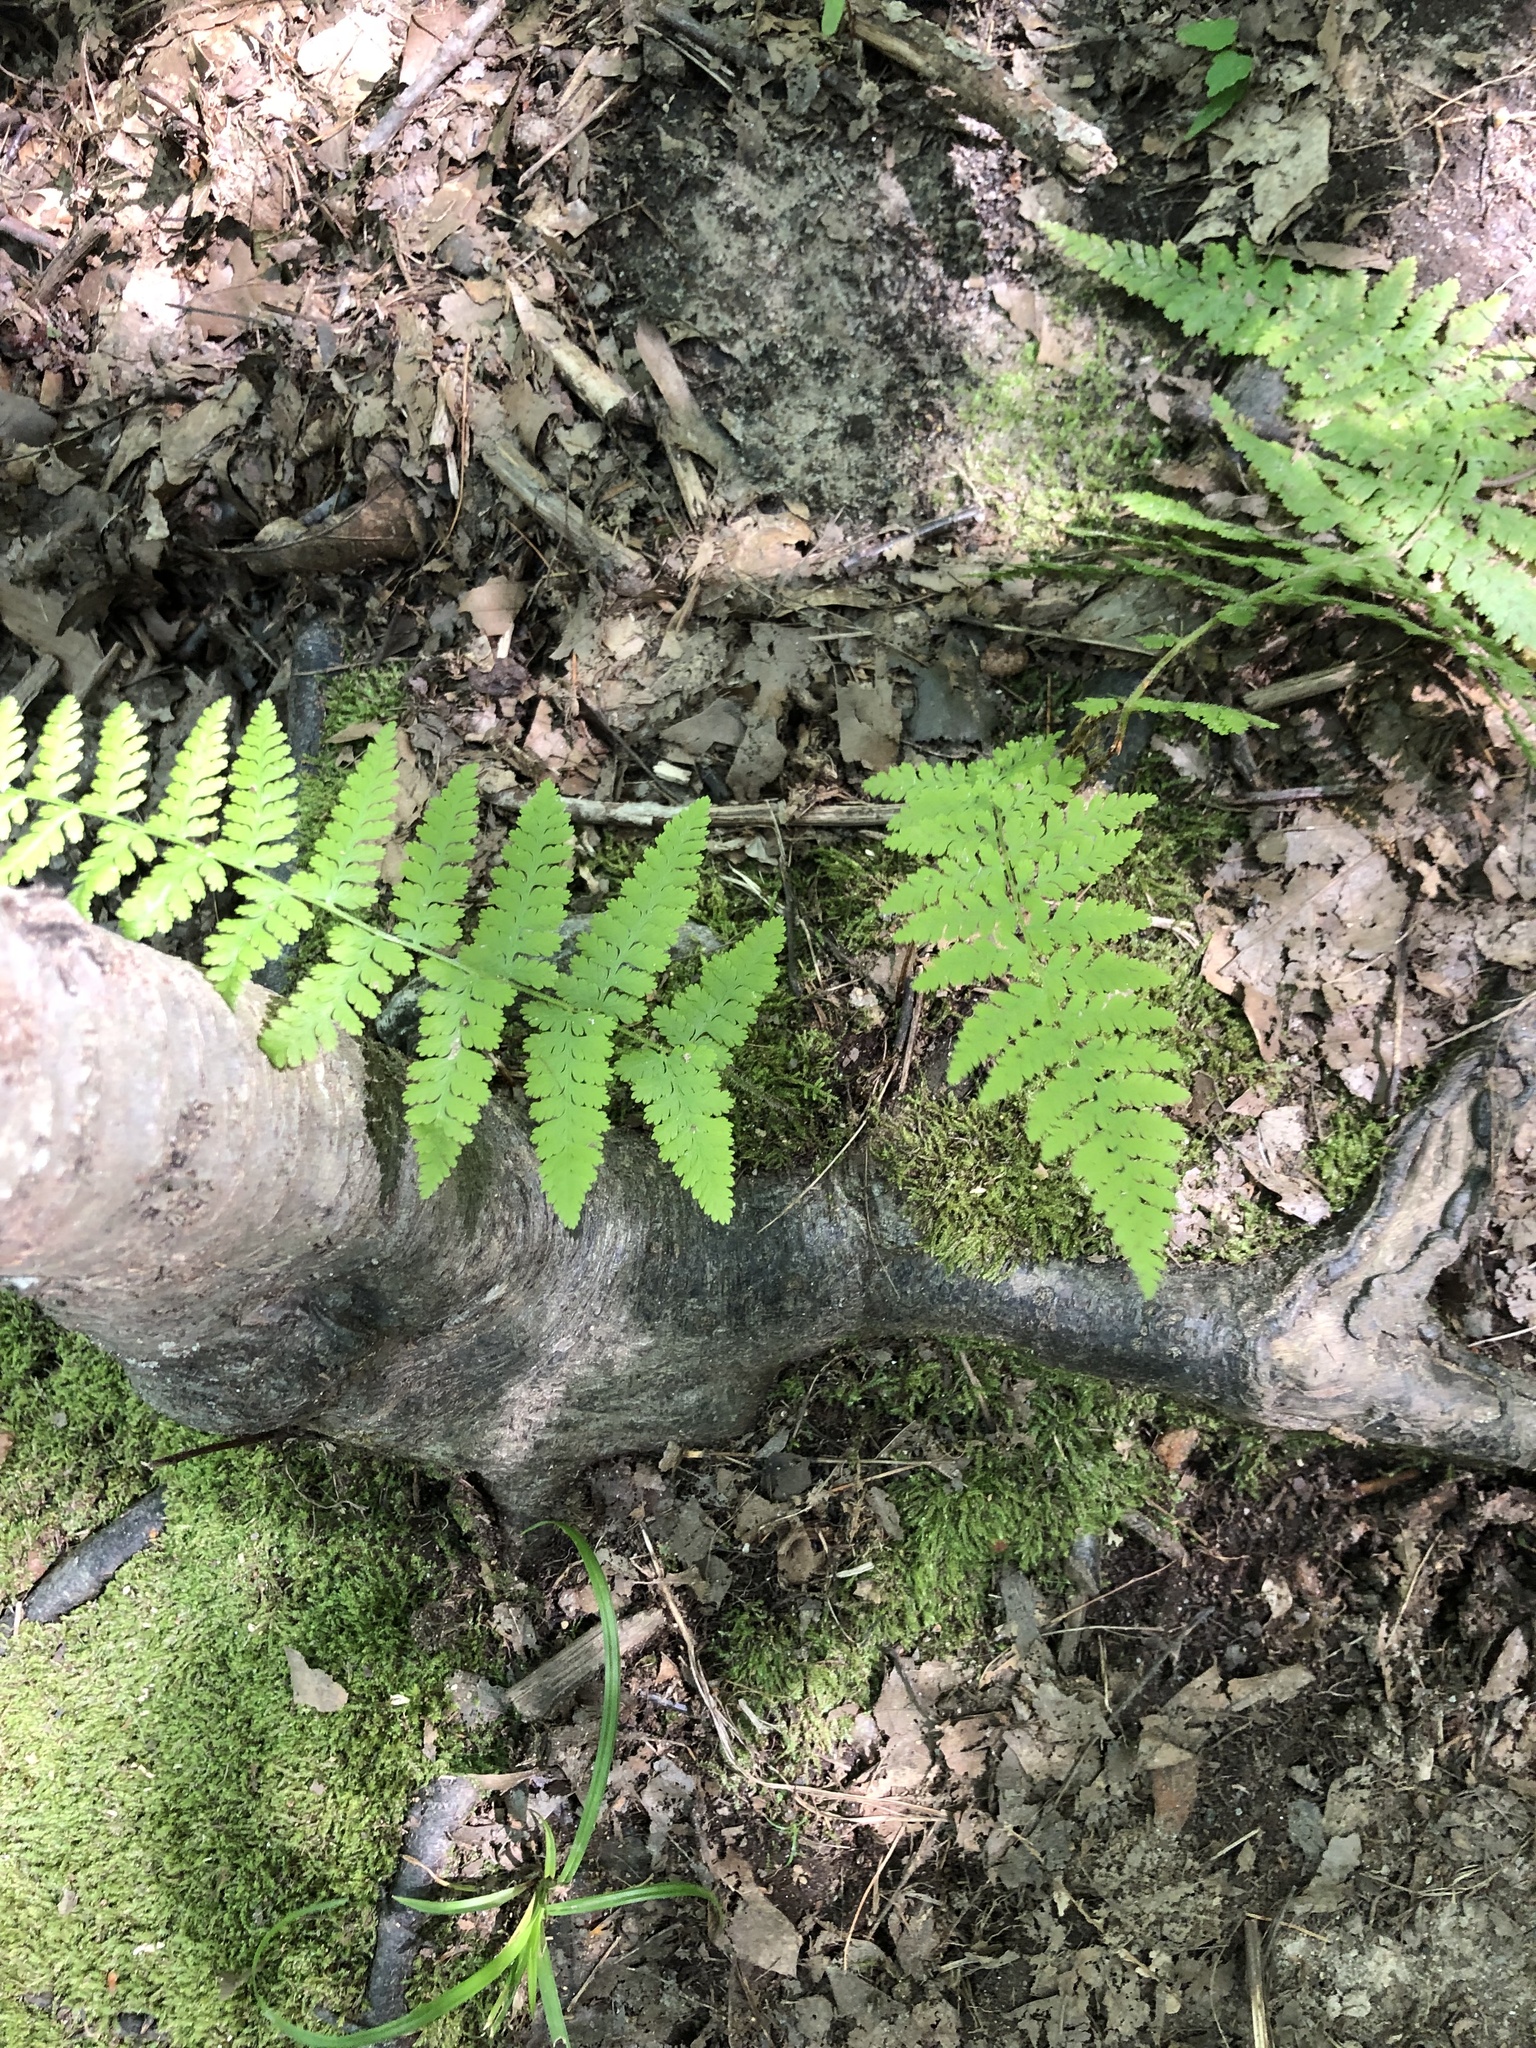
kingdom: Plantae
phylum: Tracheophyta
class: Polypodiopsida
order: Polypodiales
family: Dennstaedtiaceae
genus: Sitobolium
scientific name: Sitobolium punctilobum
